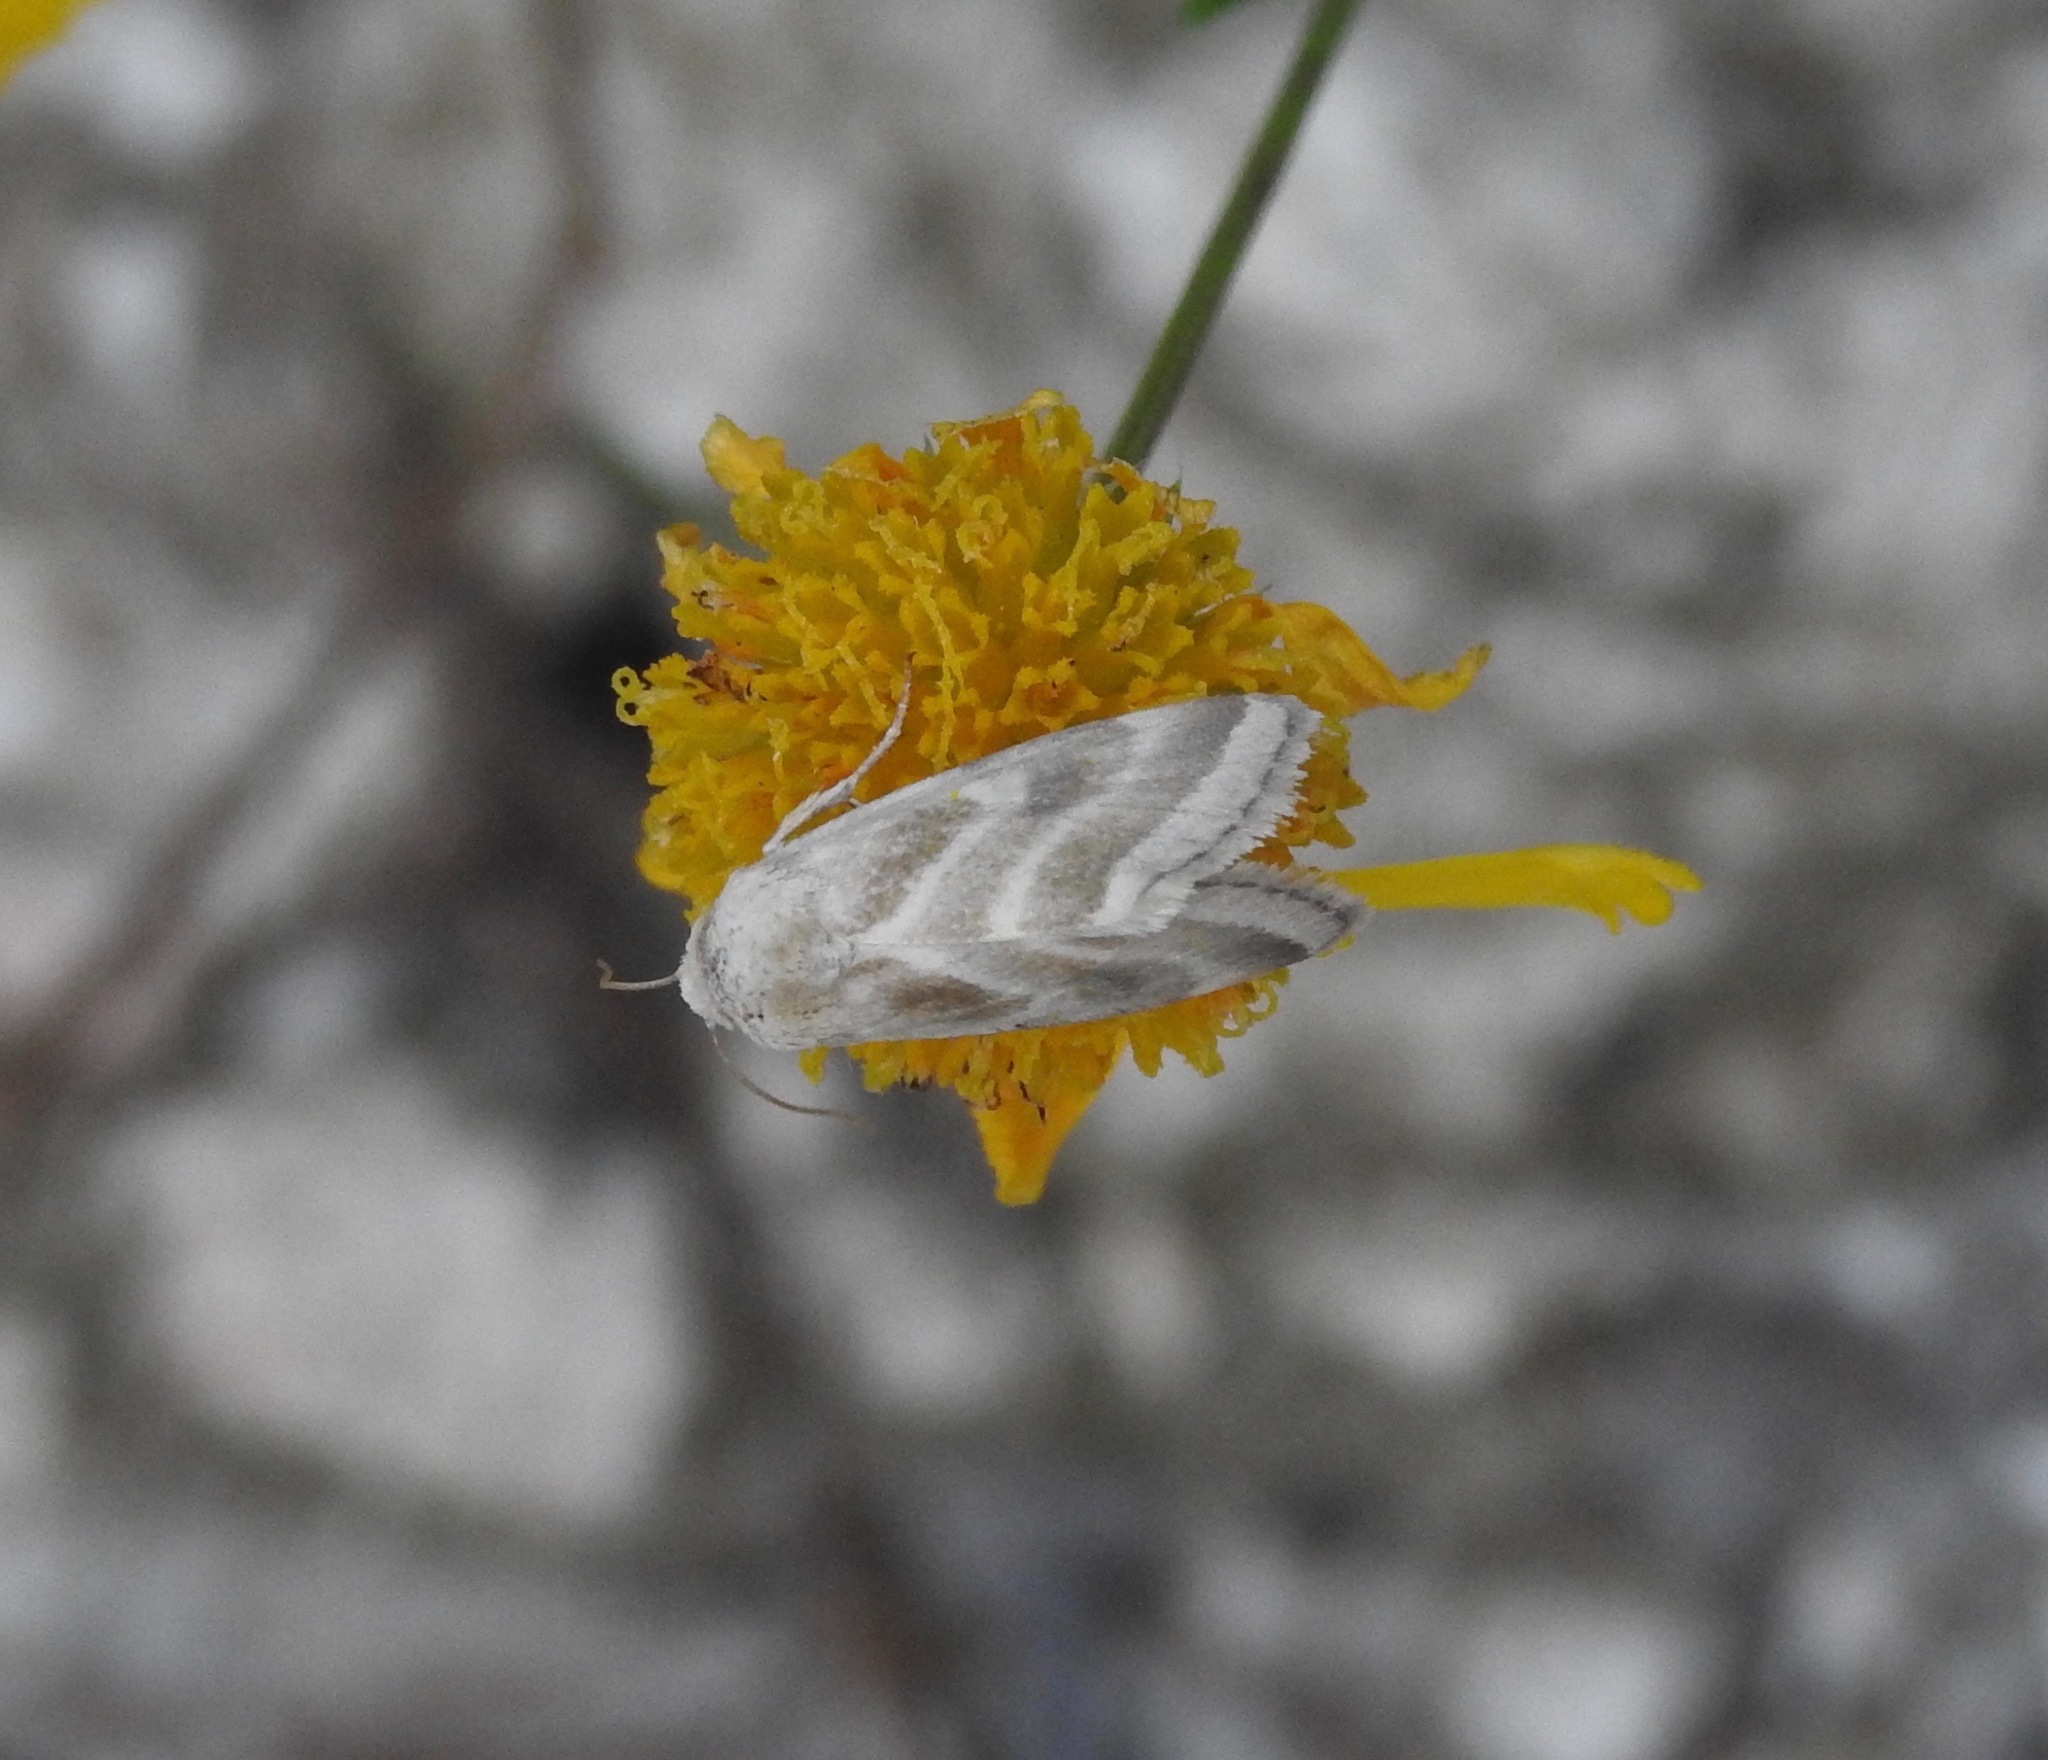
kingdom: Animalia
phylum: Arthropoda
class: Insecta
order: Lepidoptera
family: Noctuidae
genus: Schinia
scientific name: Schinia trifascia
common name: Three-lined flower moth
